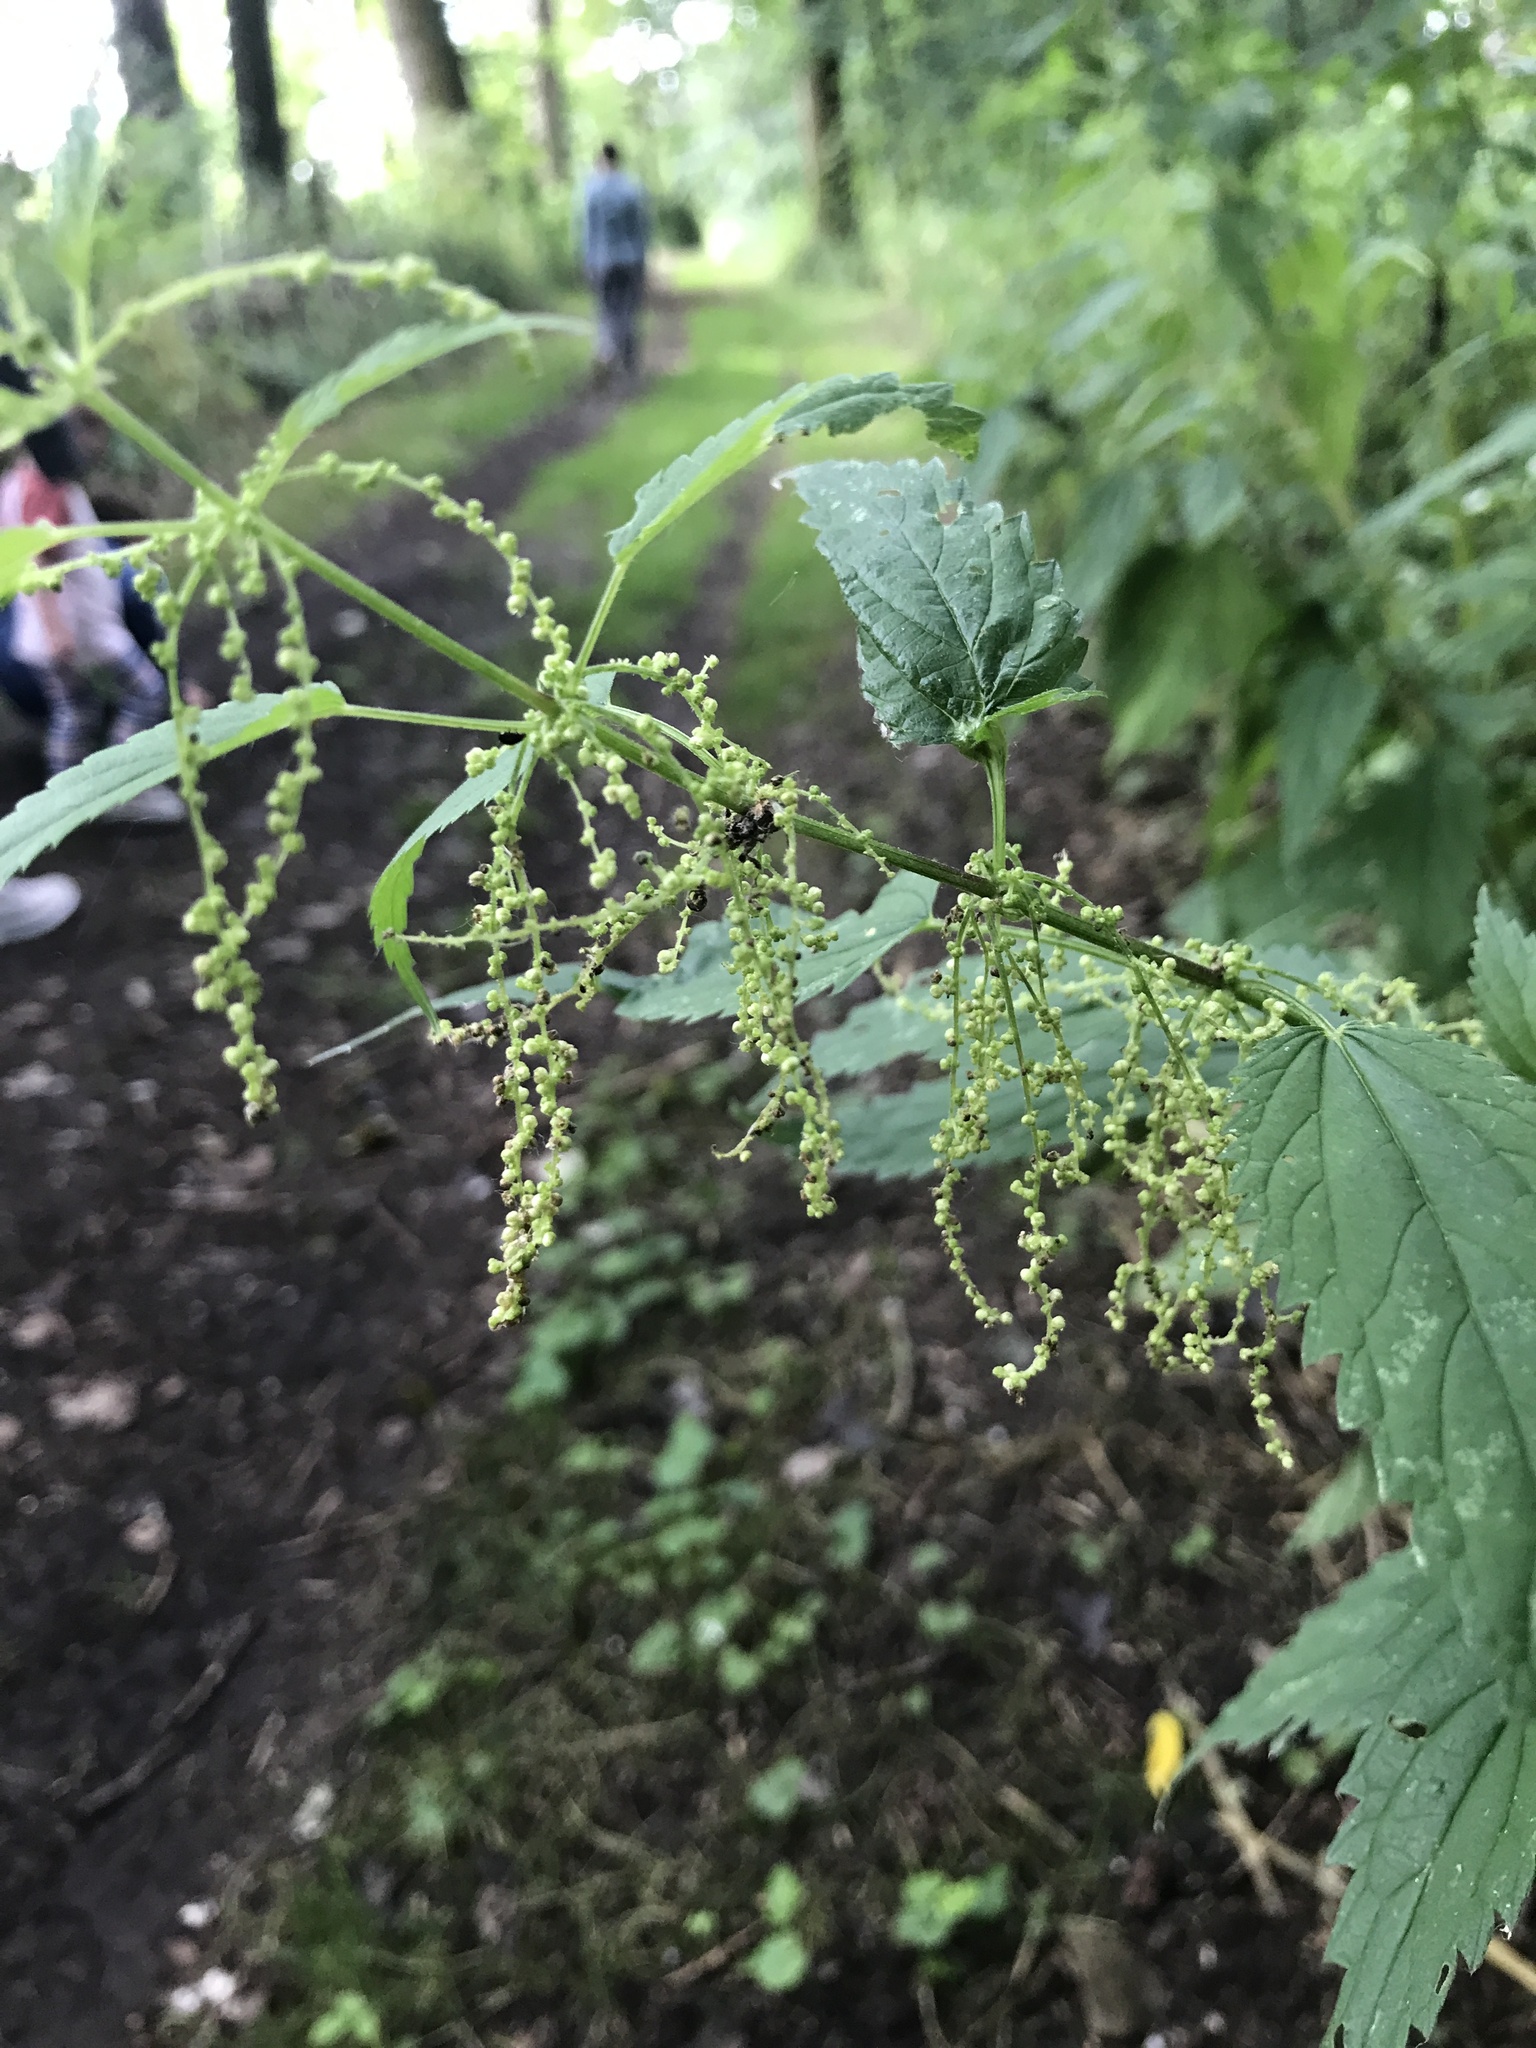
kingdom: Plantae
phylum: Tracheophyta
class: Magnoliopsida
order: Rosales
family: Urticaceae
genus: Urtica
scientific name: Urtica dioica
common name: Common nettle
